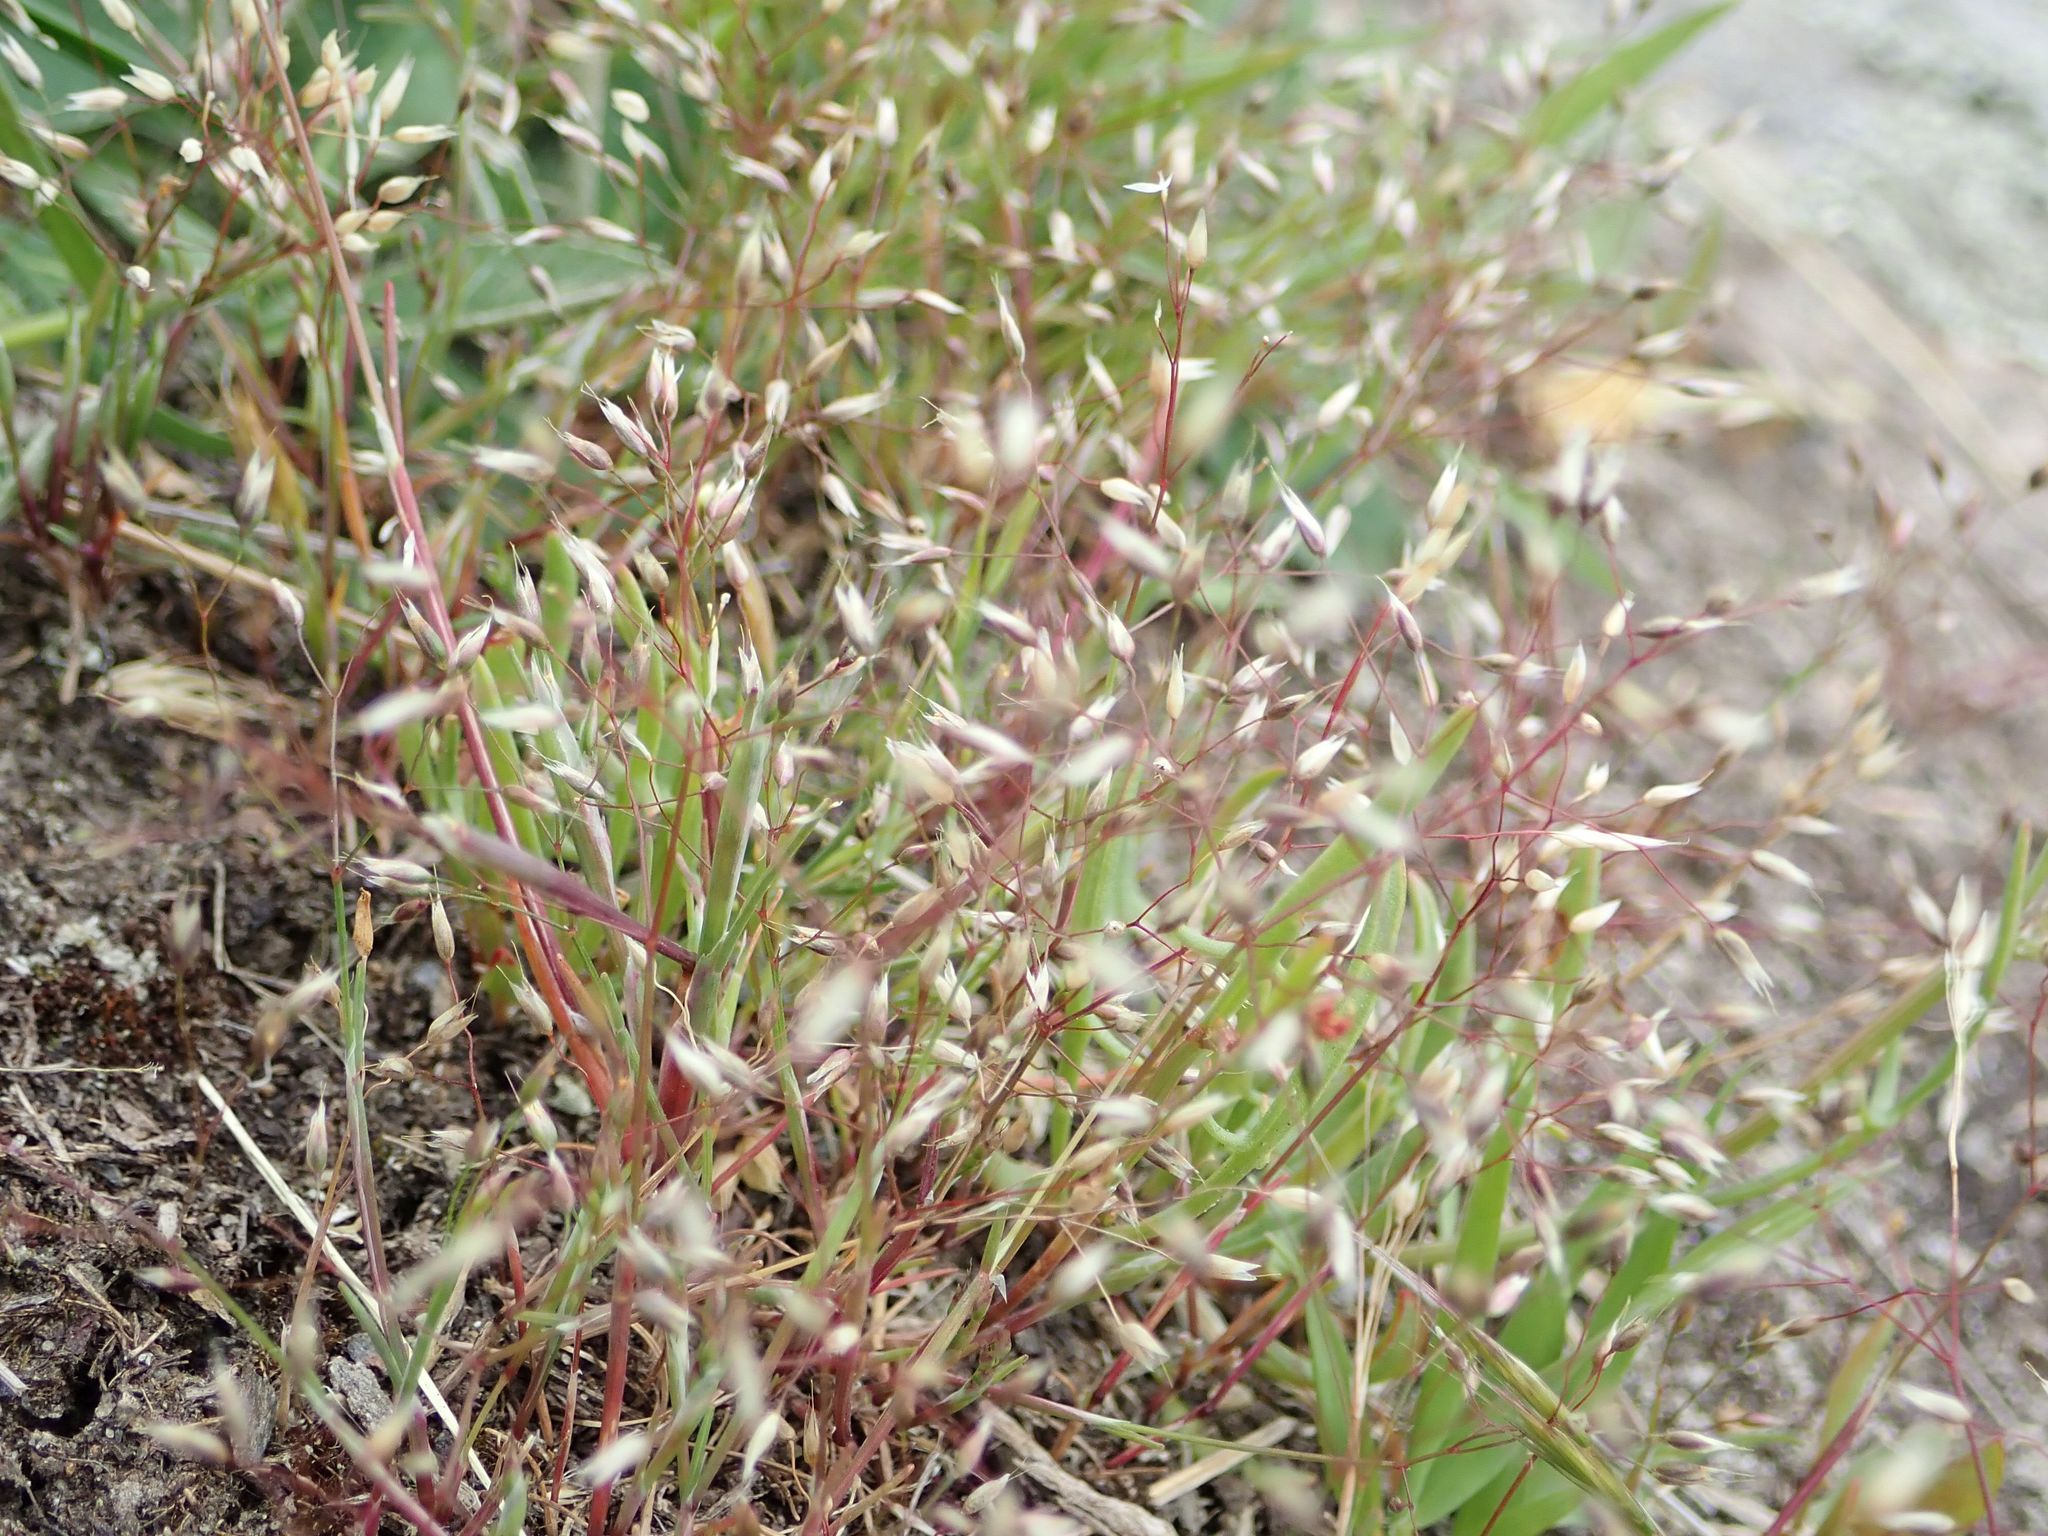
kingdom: Plantae
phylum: Tracheophyta
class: Liliopsida
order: Poales
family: Poaceae
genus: Aira
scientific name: Aira caryophyllea
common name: Silver hairgrass
